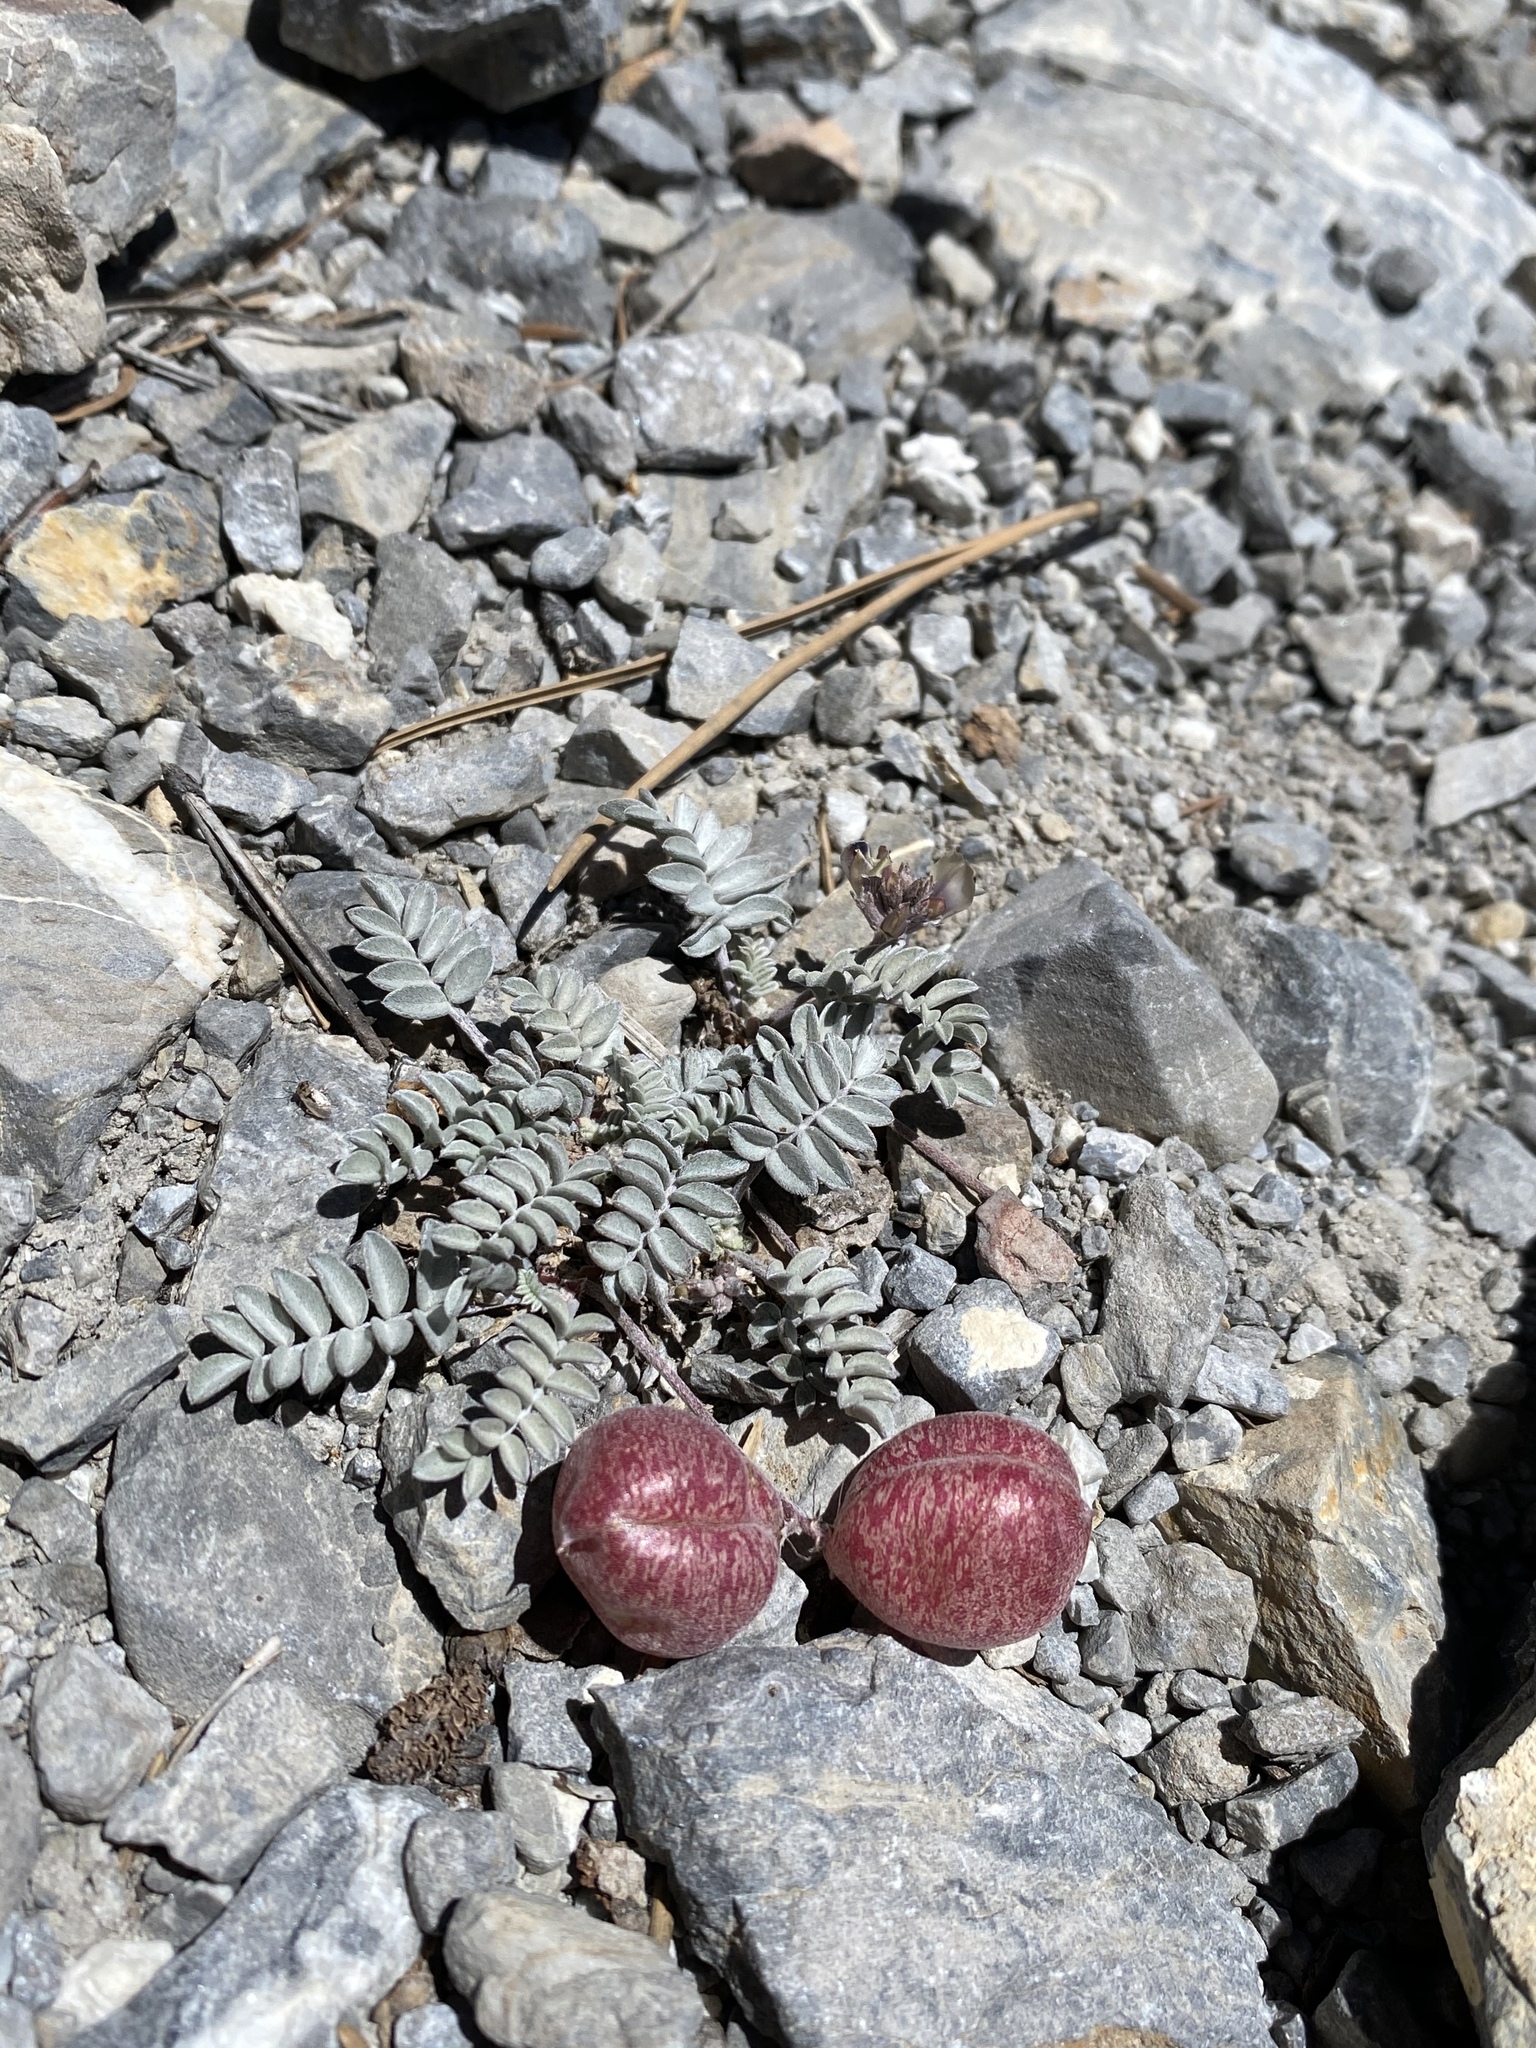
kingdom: Plantae
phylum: Tracheophyta
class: Magnoliopsida
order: Fabales
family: Fabaceae
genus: Astragalus
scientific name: Astragalus platytropis
